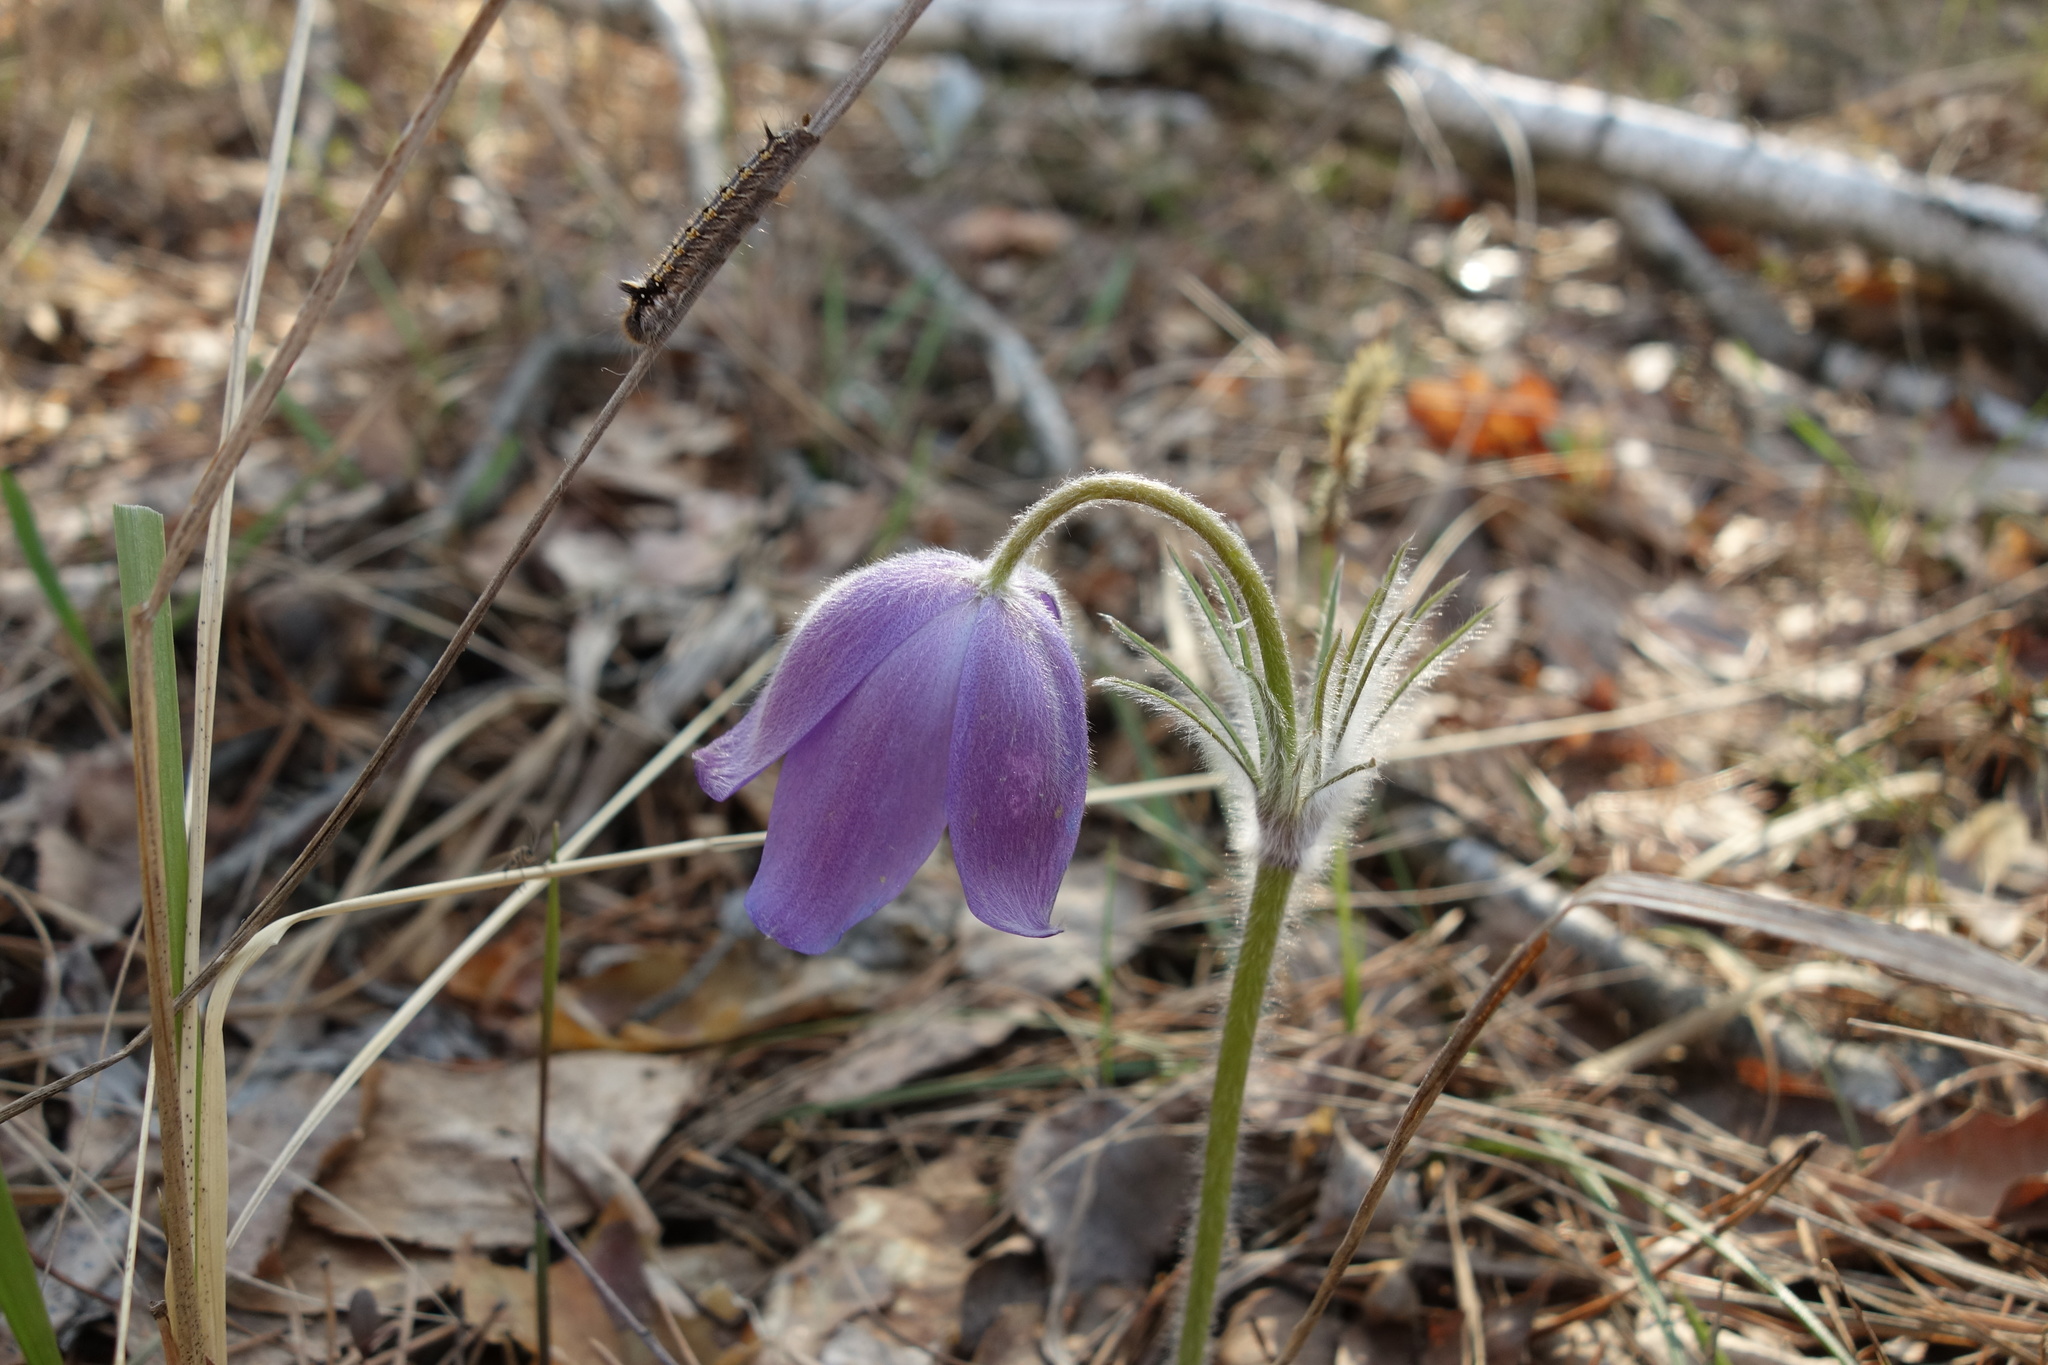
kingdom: Plantae
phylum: Tracheophyta
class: Magnoliopsida
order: Ranunculales
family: Ranunculaceae
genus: Pulsatilla
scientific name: Pulsatilla patens
